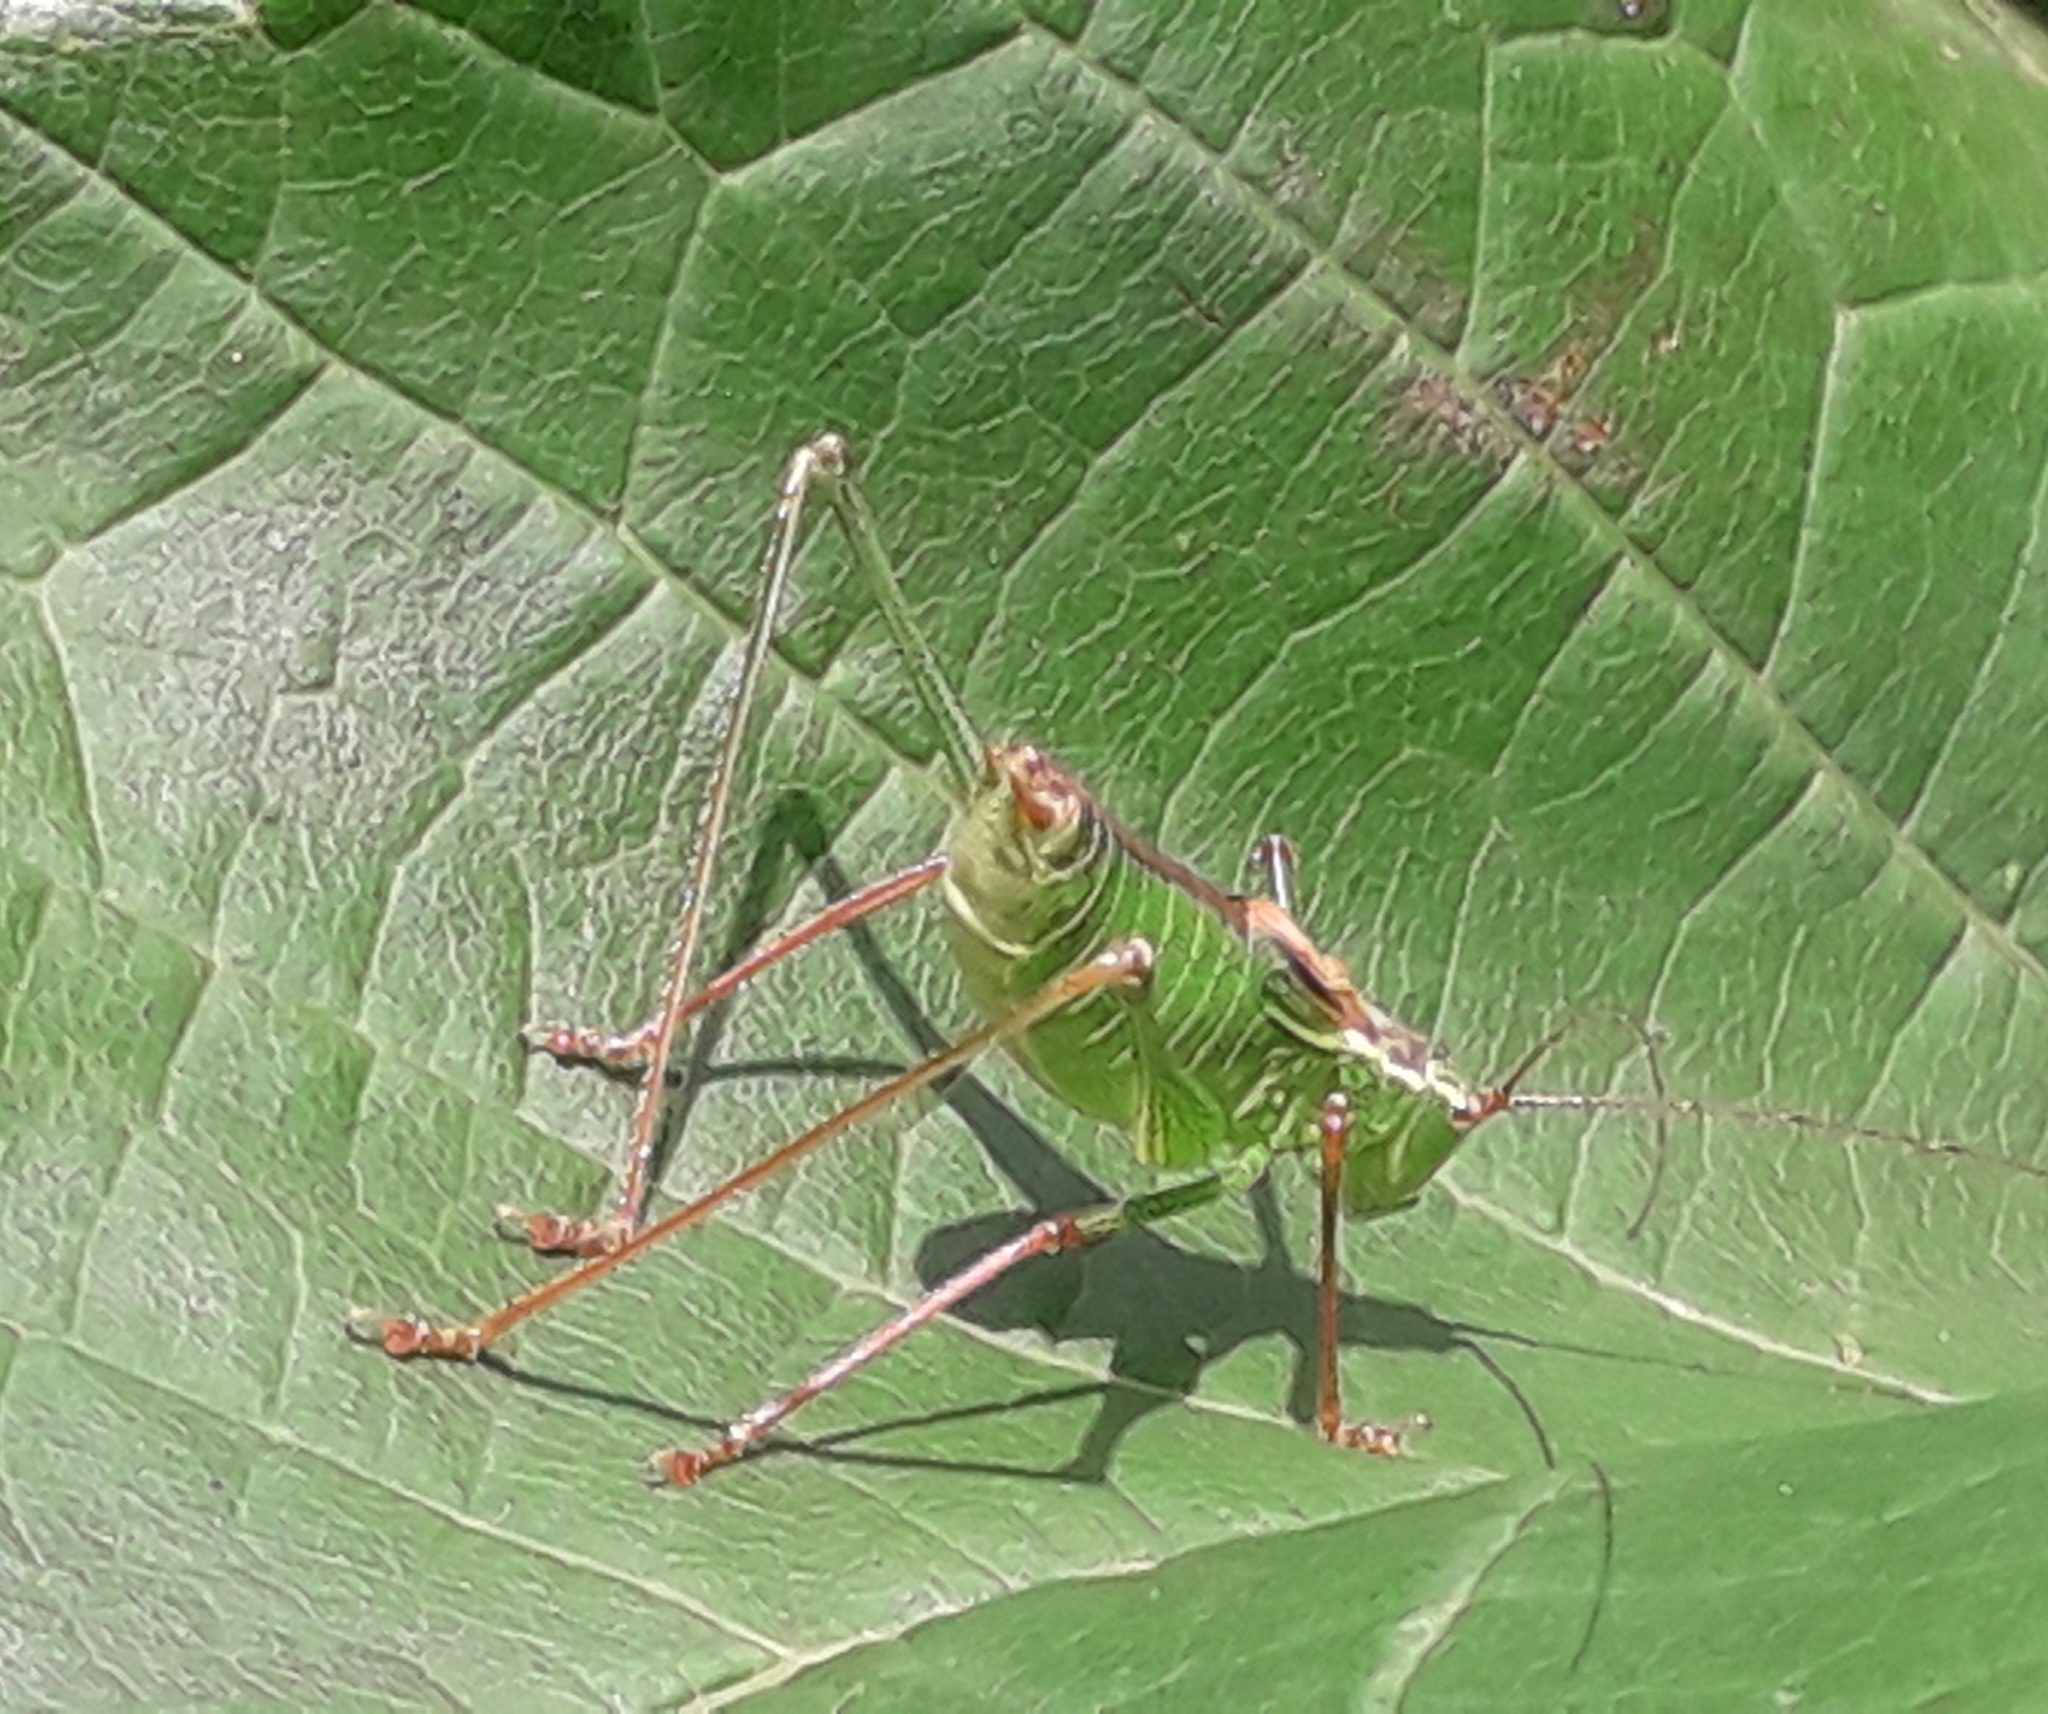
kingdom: Animalia
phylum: Arthropoda
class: Insecta
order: Orthoptera
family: Tettigoniidae
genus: Leptophyes
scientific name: Leptophyes punctatissima
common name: Speckled bush-cricket
